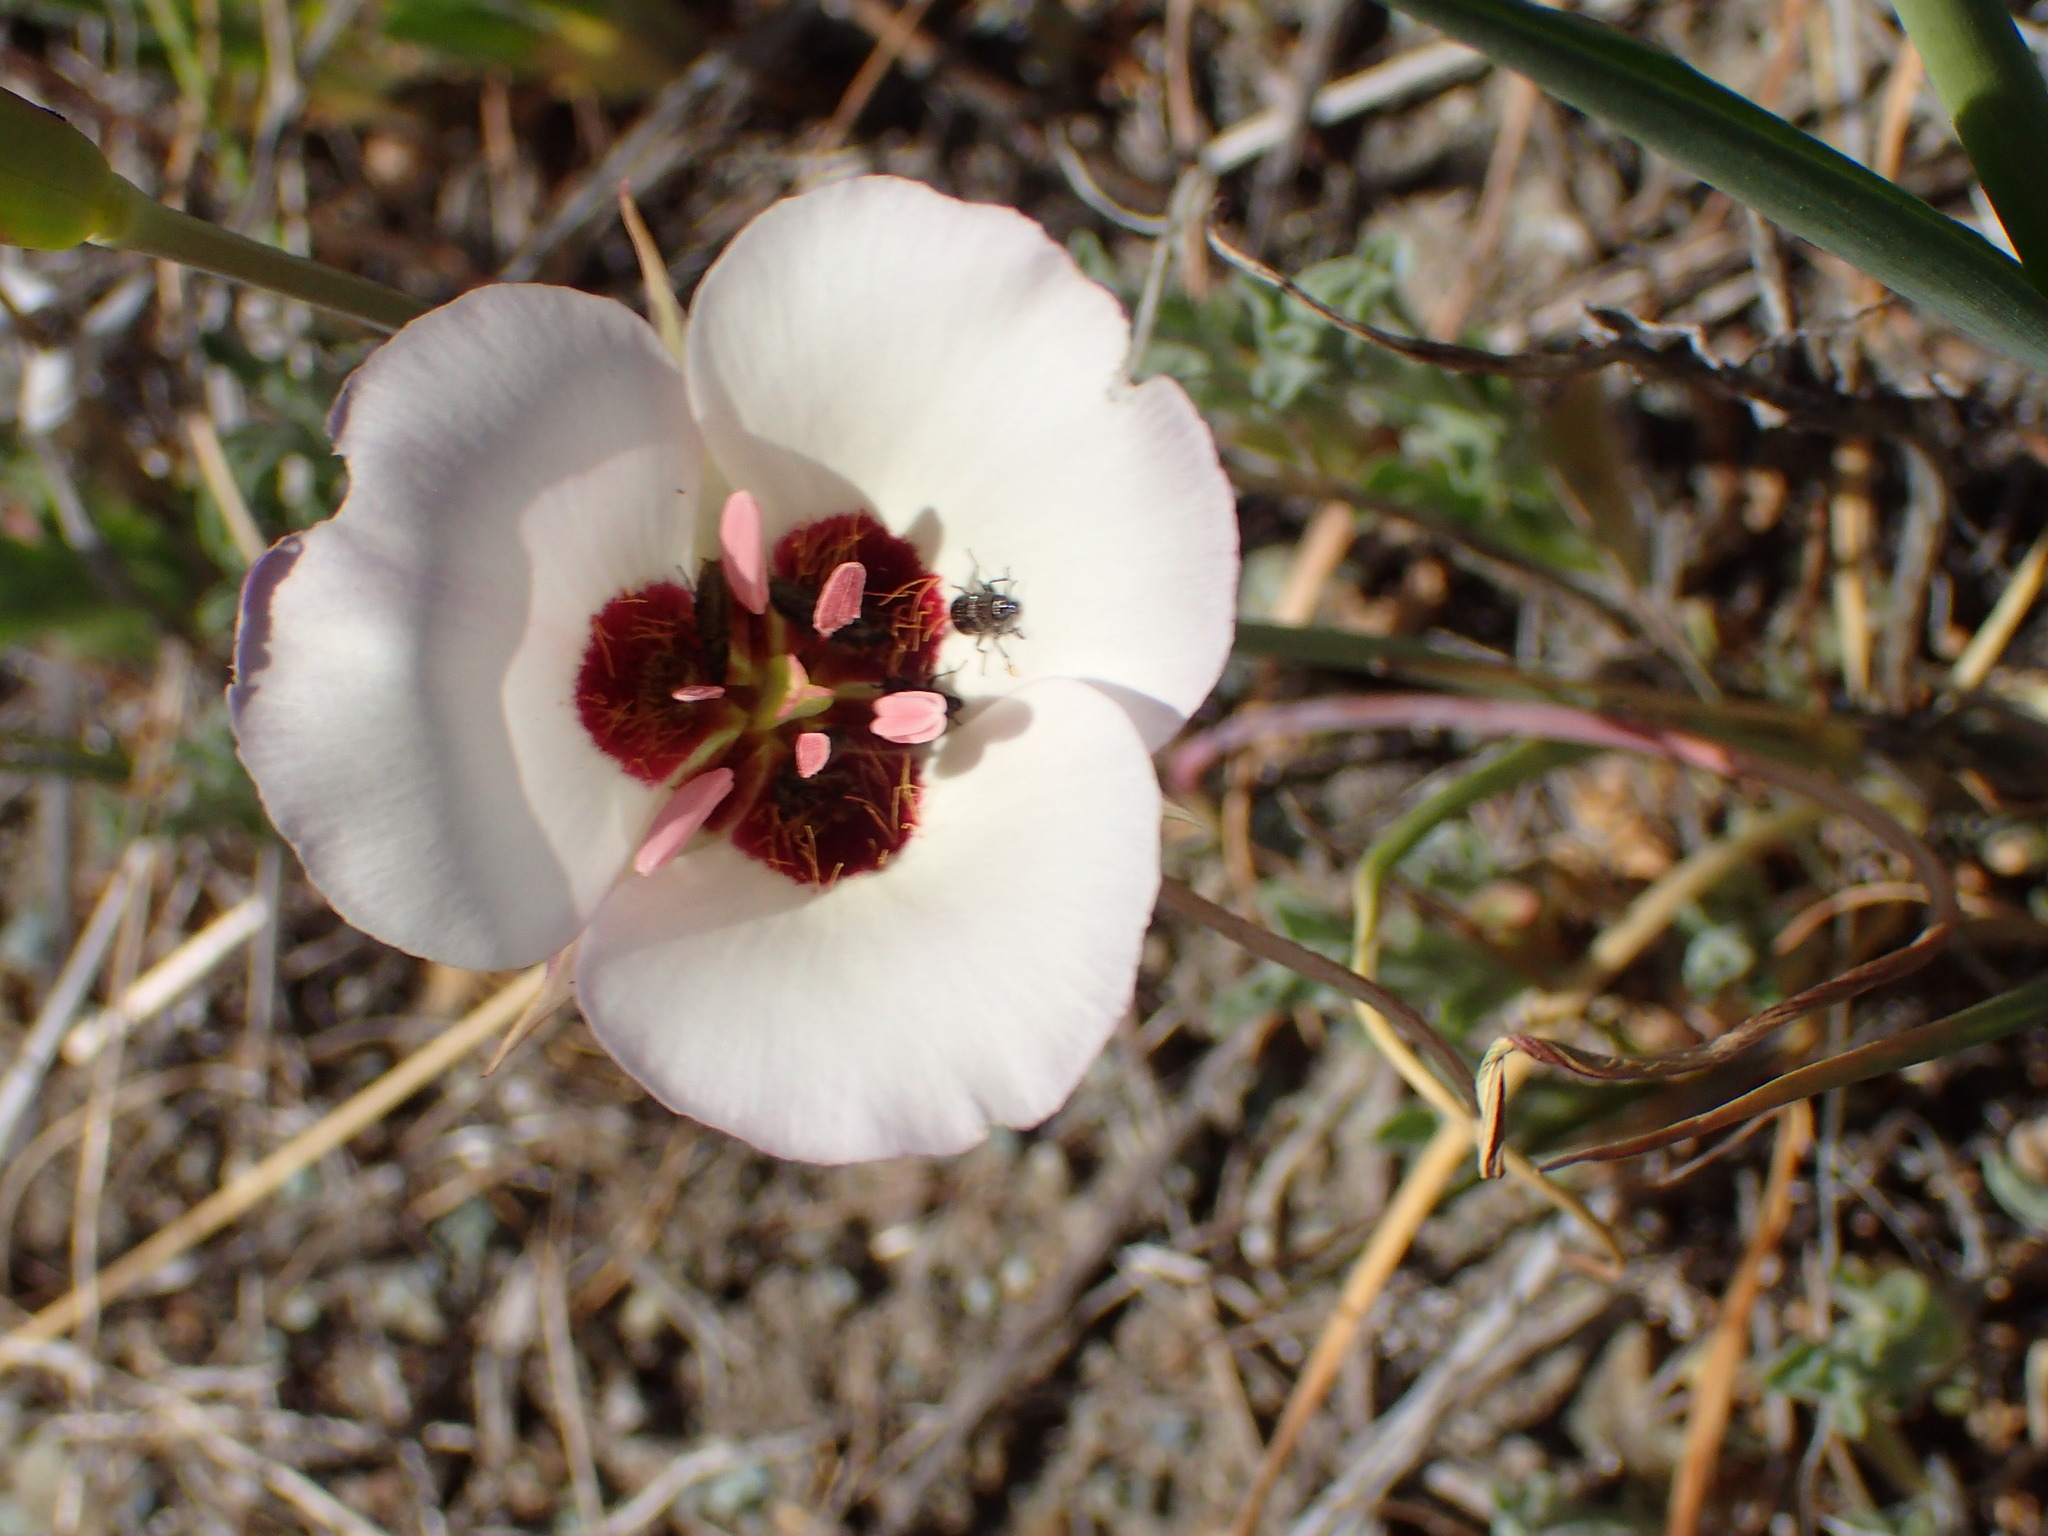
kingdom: Plantae
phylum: Tracheophyta
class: Liliopsida
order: Liliales
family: Liliaceae
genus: Calochortus
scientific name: Calochortus catalinae
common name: Catalina mariposa-lily
